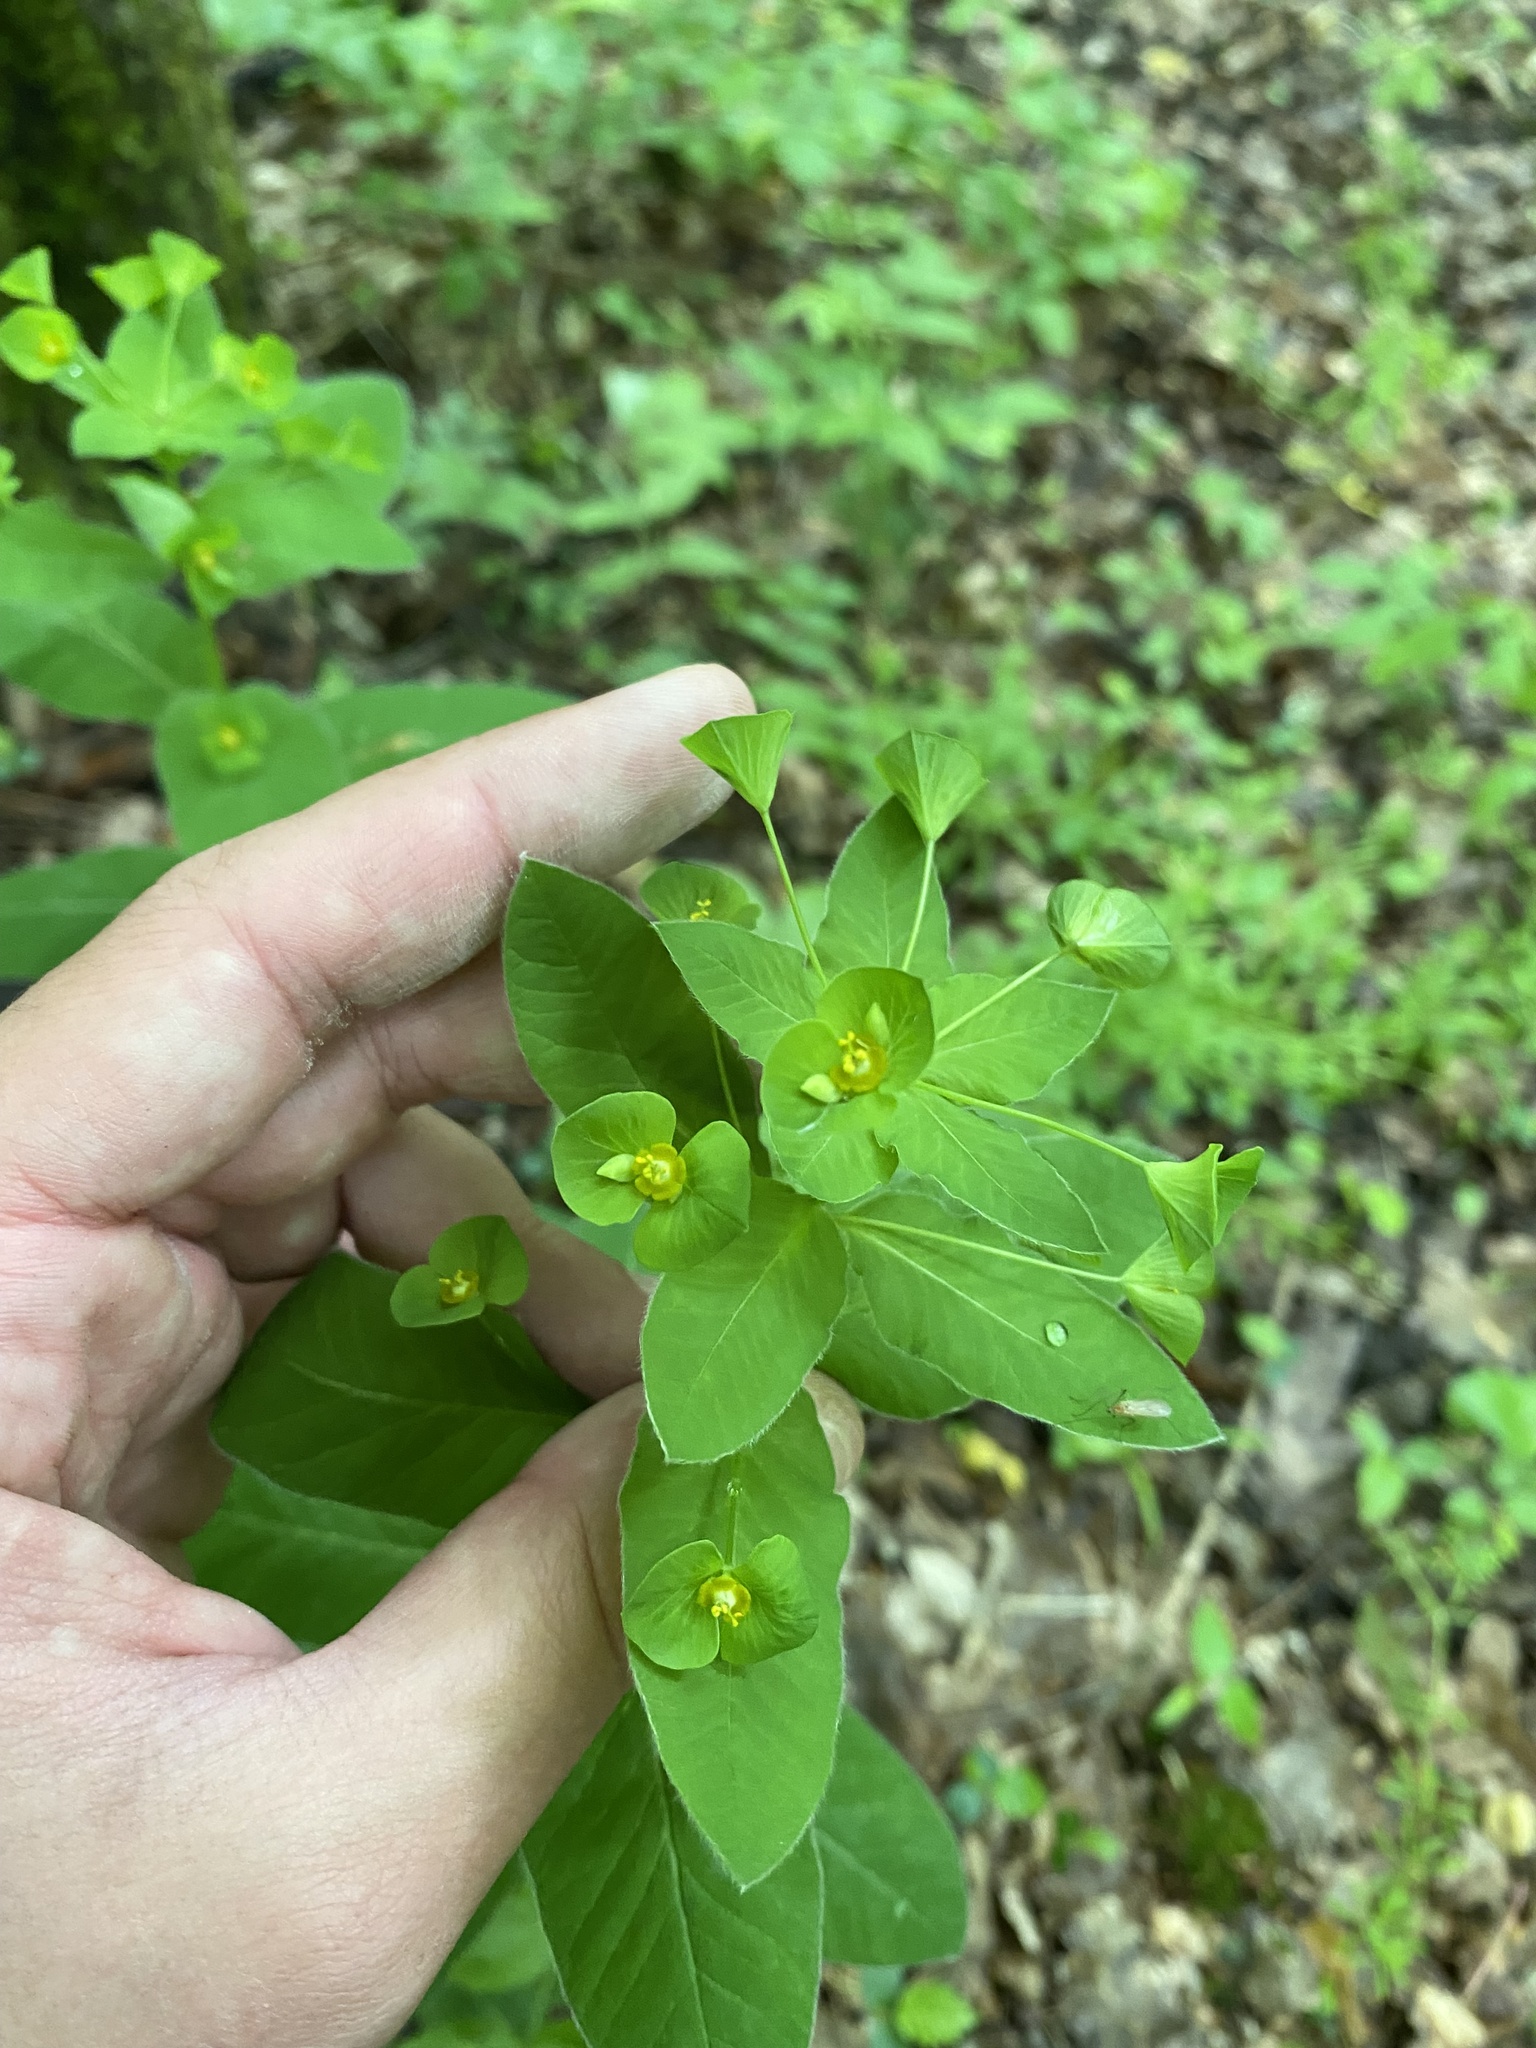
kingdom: Plantae
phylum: Tracheophyta
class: Magnoliopsida
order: Malpighiales
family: Euphorbiaceae
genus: Euphorbia
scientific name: Euphorbia squamosa
